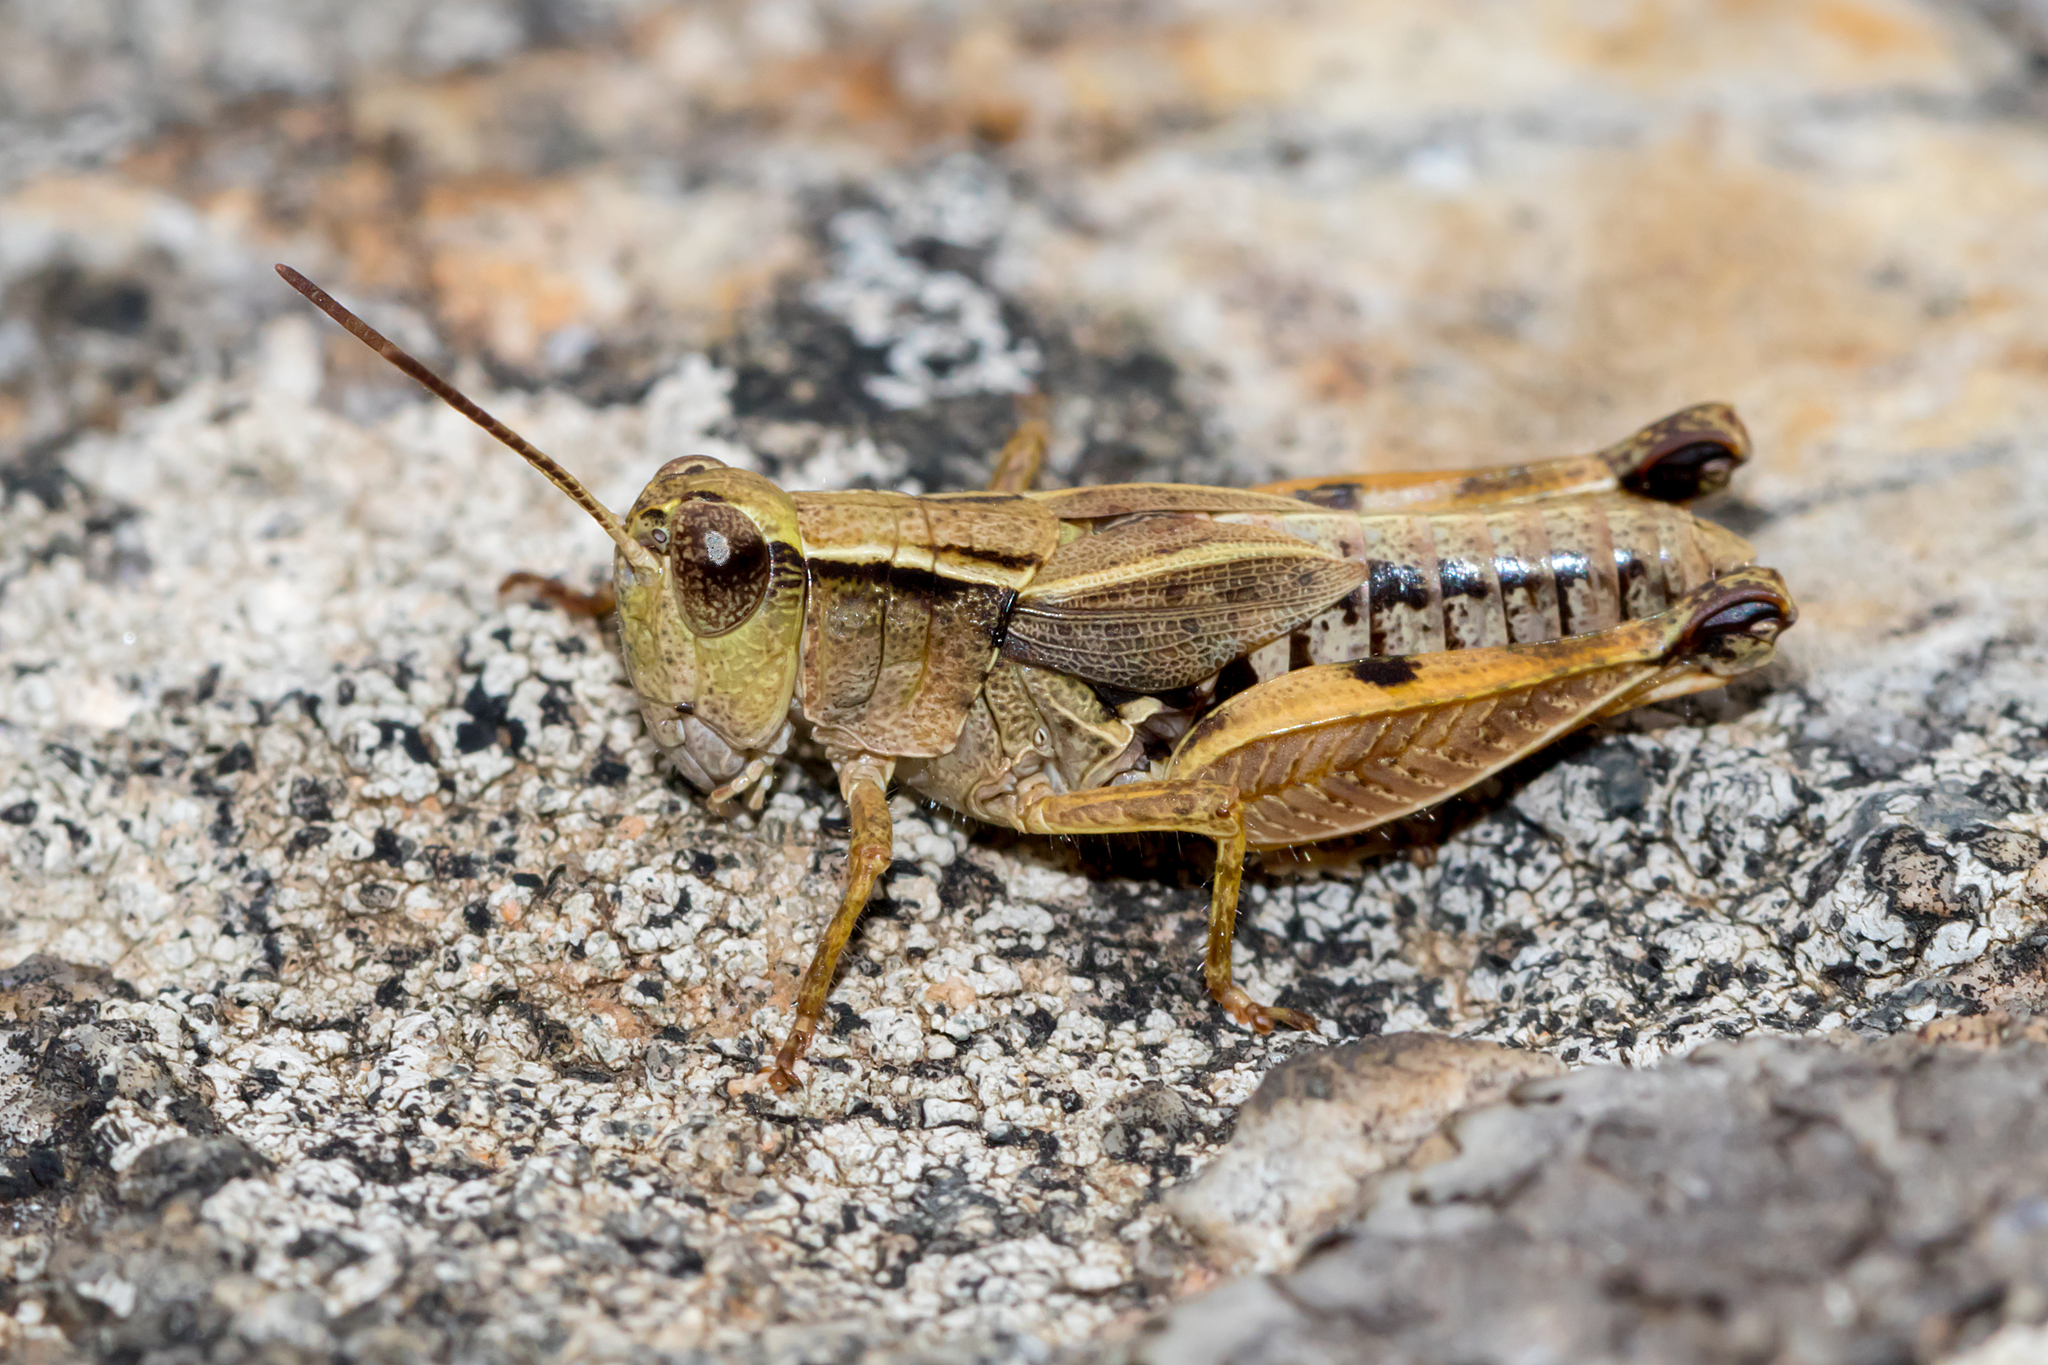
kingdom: Animalia
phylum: Arthropoda
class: Insecta
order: Orthoptera
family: Acrididae
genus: Phaulacridium
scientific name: Phaulacridium vittatum
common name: Wingless grasshopper
